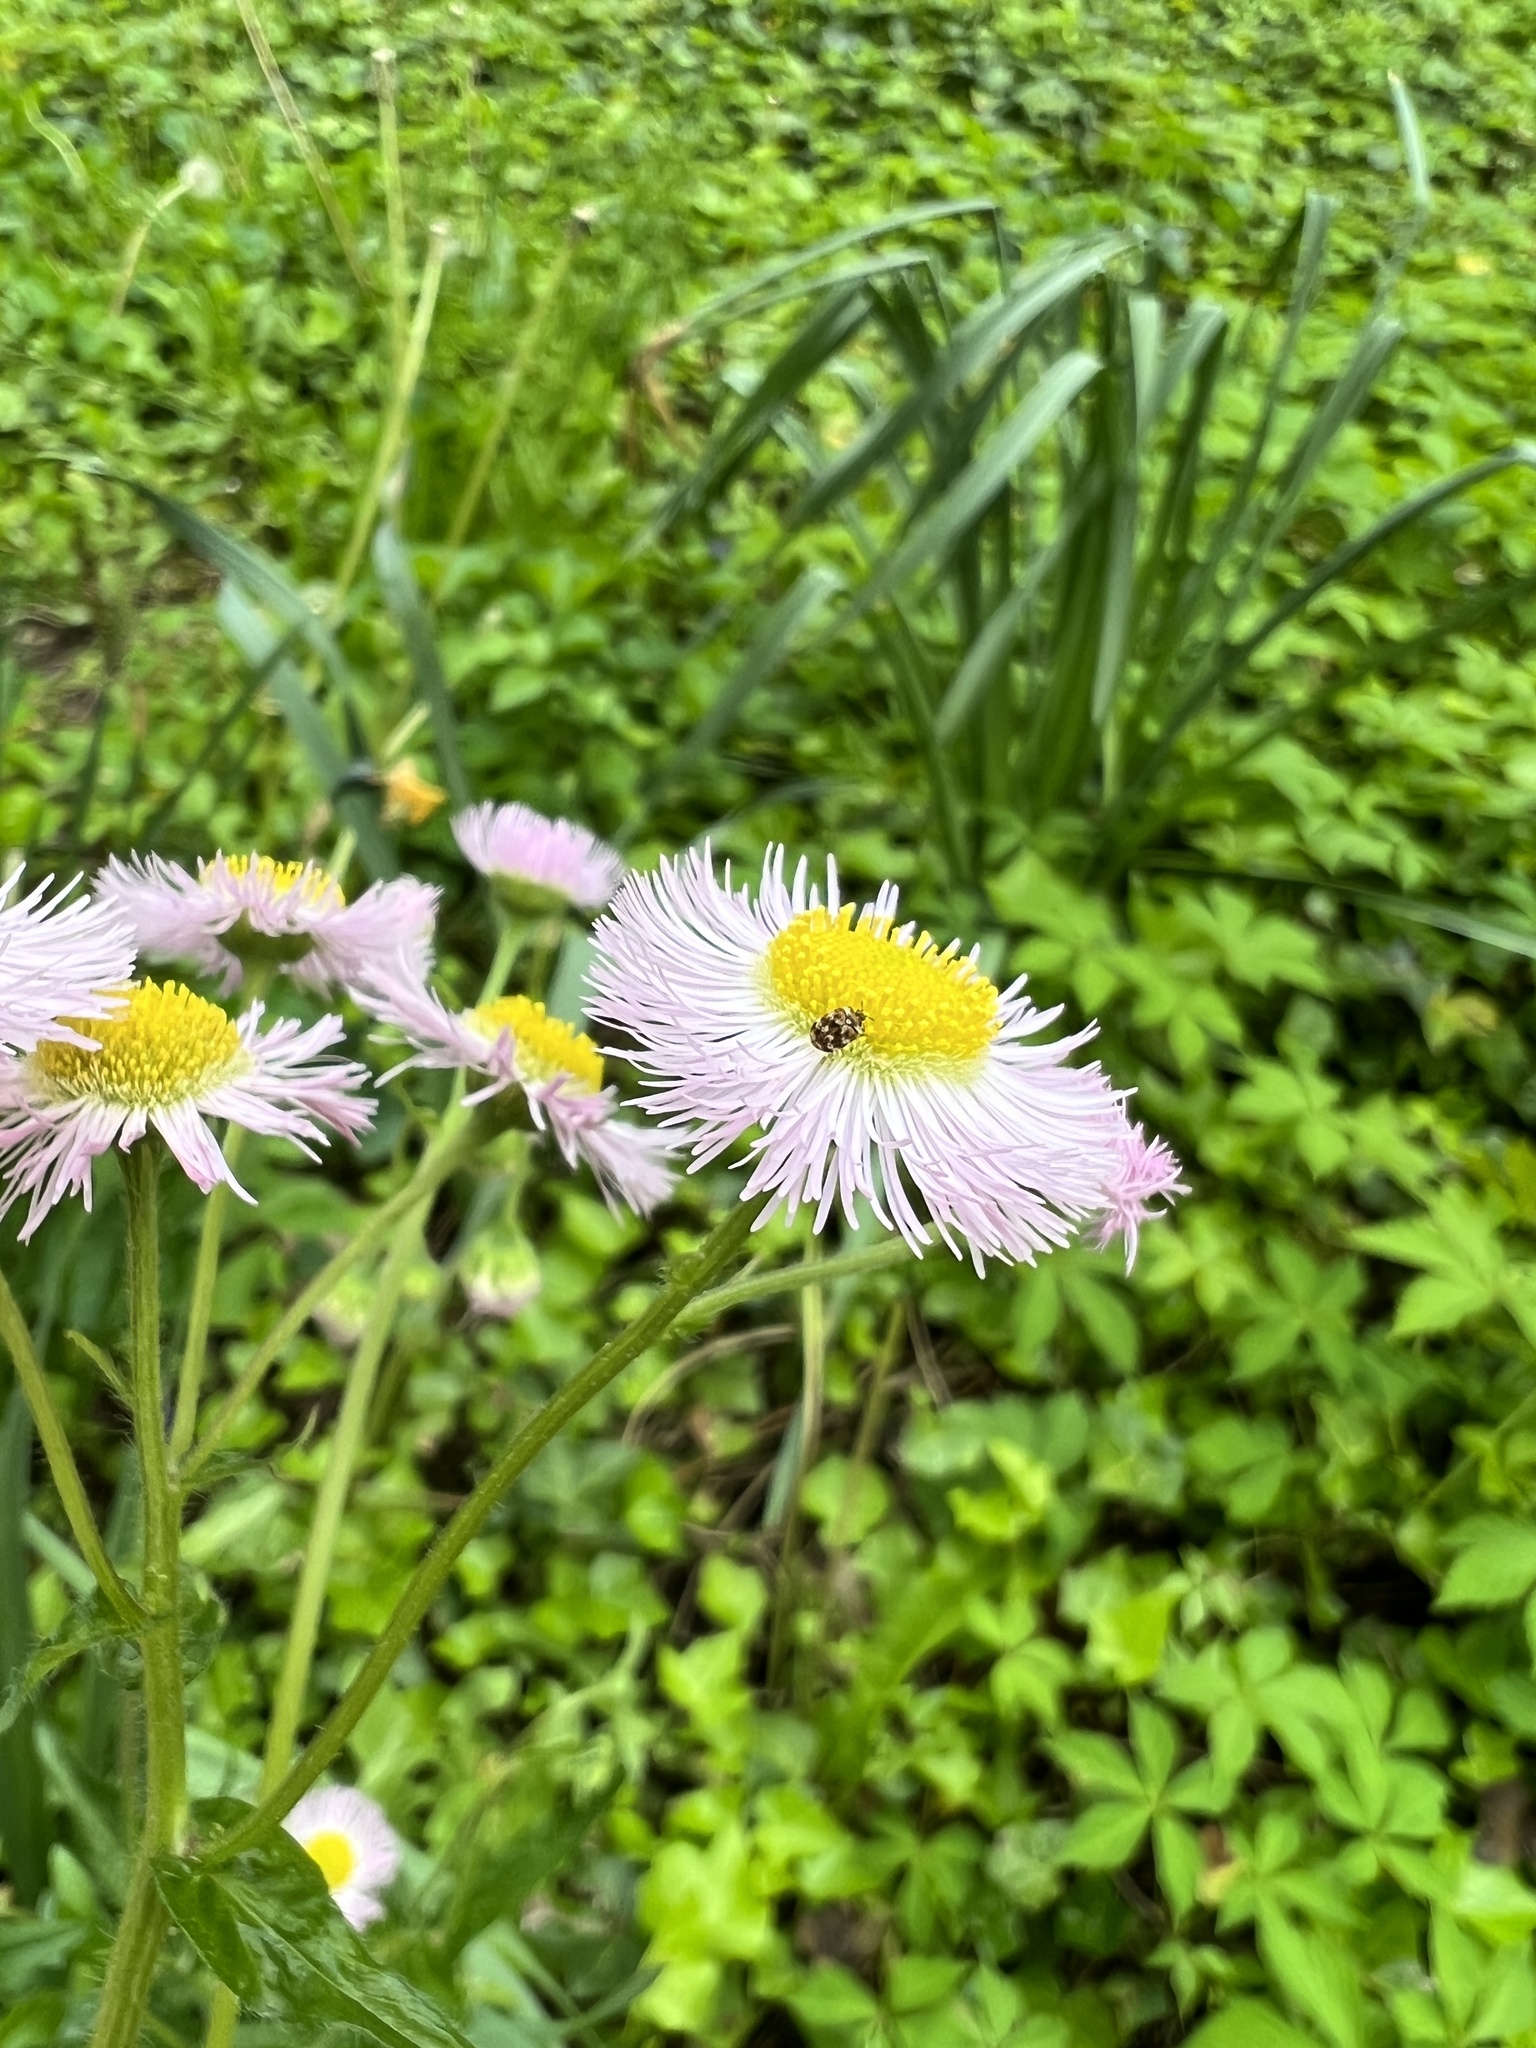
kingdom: Plantae
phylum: Tracheophyta
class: Magnoliopsida
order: Asterales
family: Asteraceae
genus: Erigeron
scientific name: Erigeron philadelphicus
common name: Robin's-plantain
